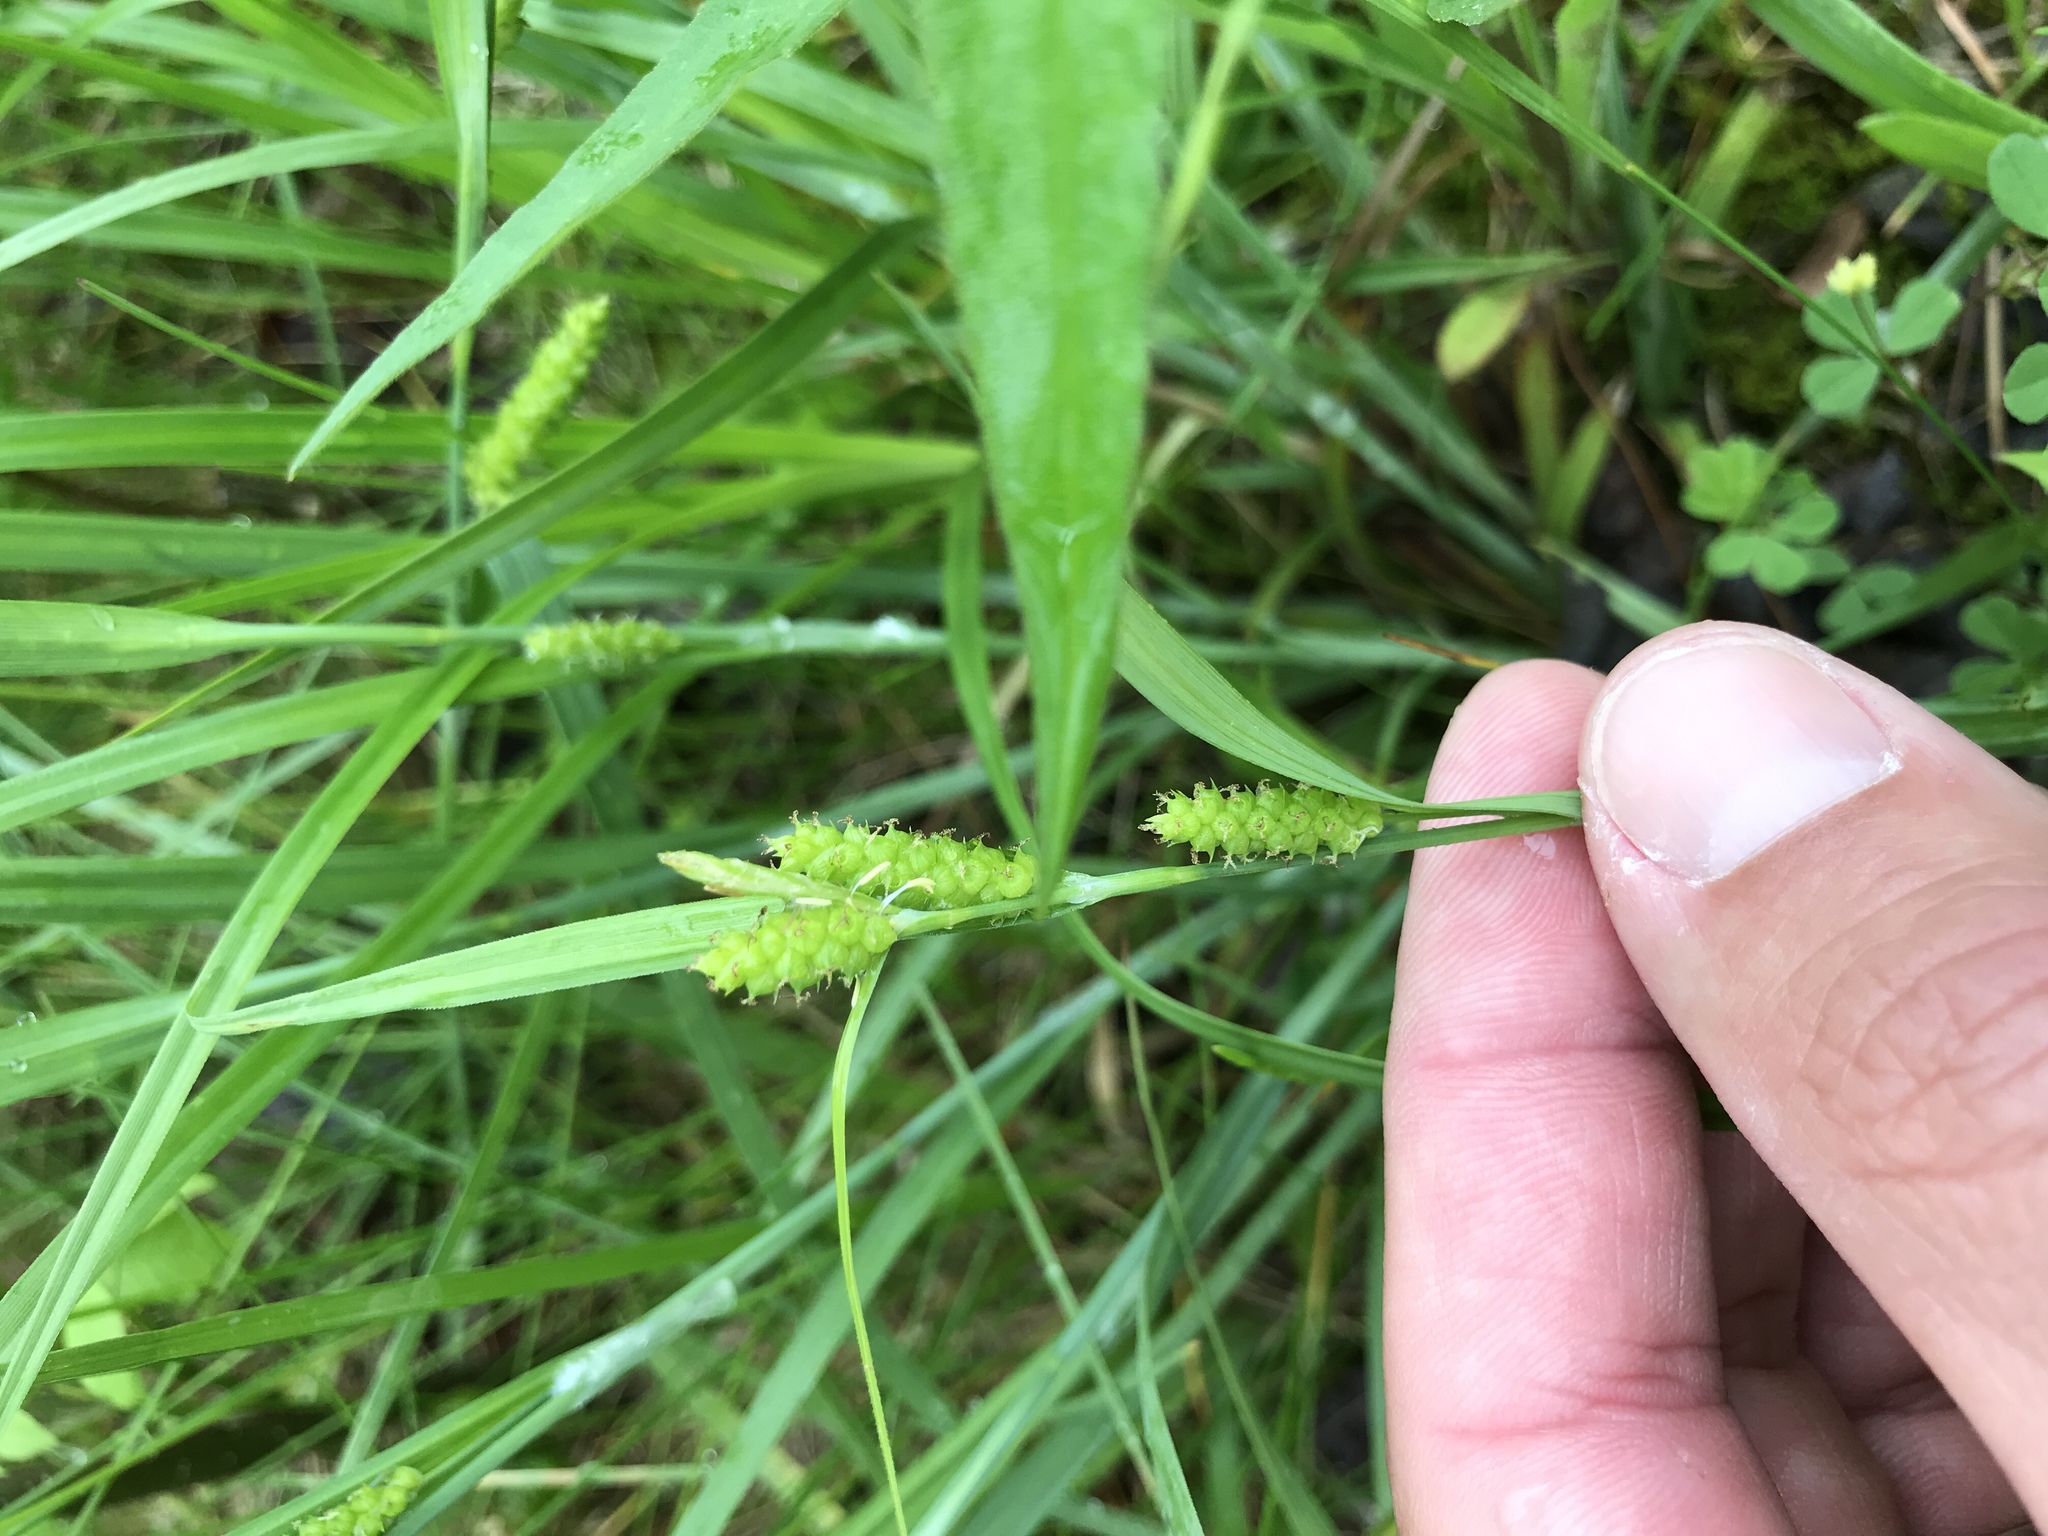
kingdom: Plantae
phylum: Tracheophyta
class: Liliopsida
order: Poales
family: Cyperaceae
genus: Carex
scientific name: Carex granularis
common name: Granular sedge
